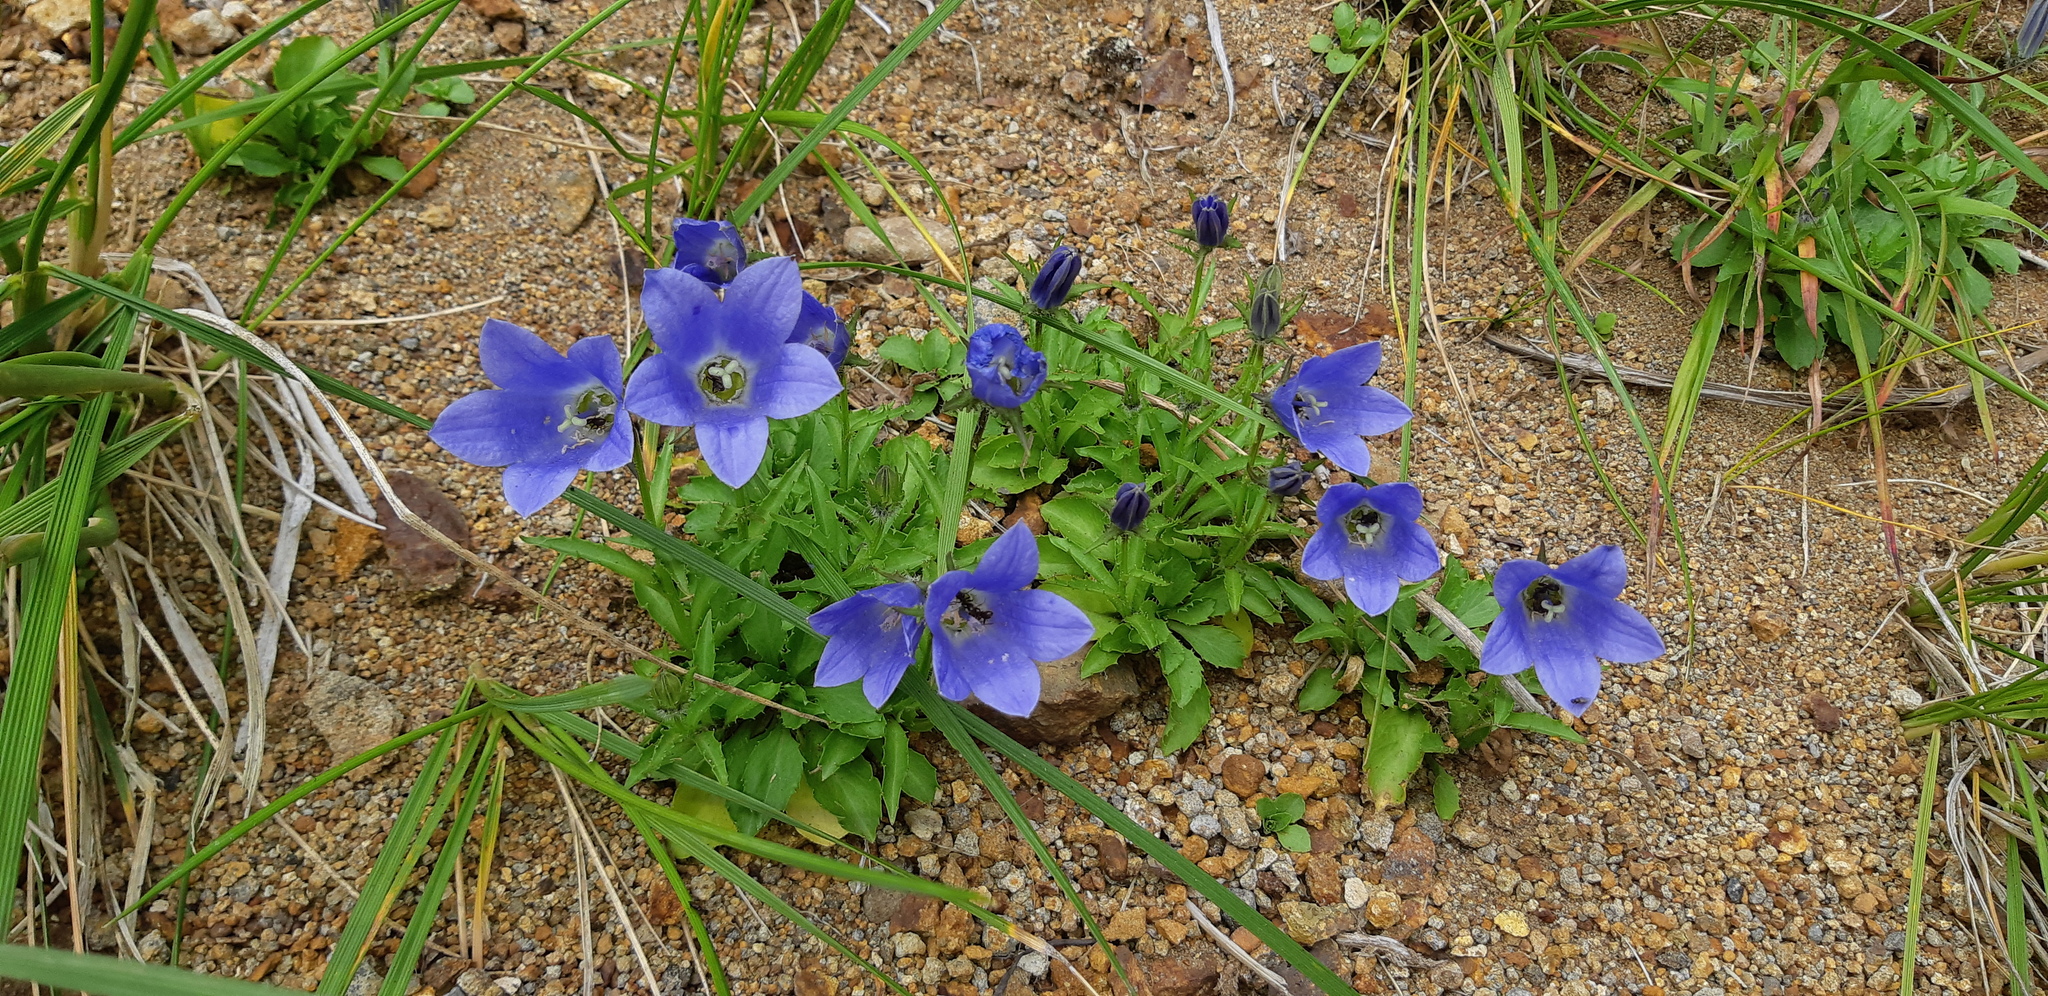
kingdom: Plantae
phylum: Tracheophyta
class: Magnoliopsida
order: Asterales
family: Campanulaceae
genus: Campanula
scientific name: Campanula lasiocarpa
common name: Mountain harebell
